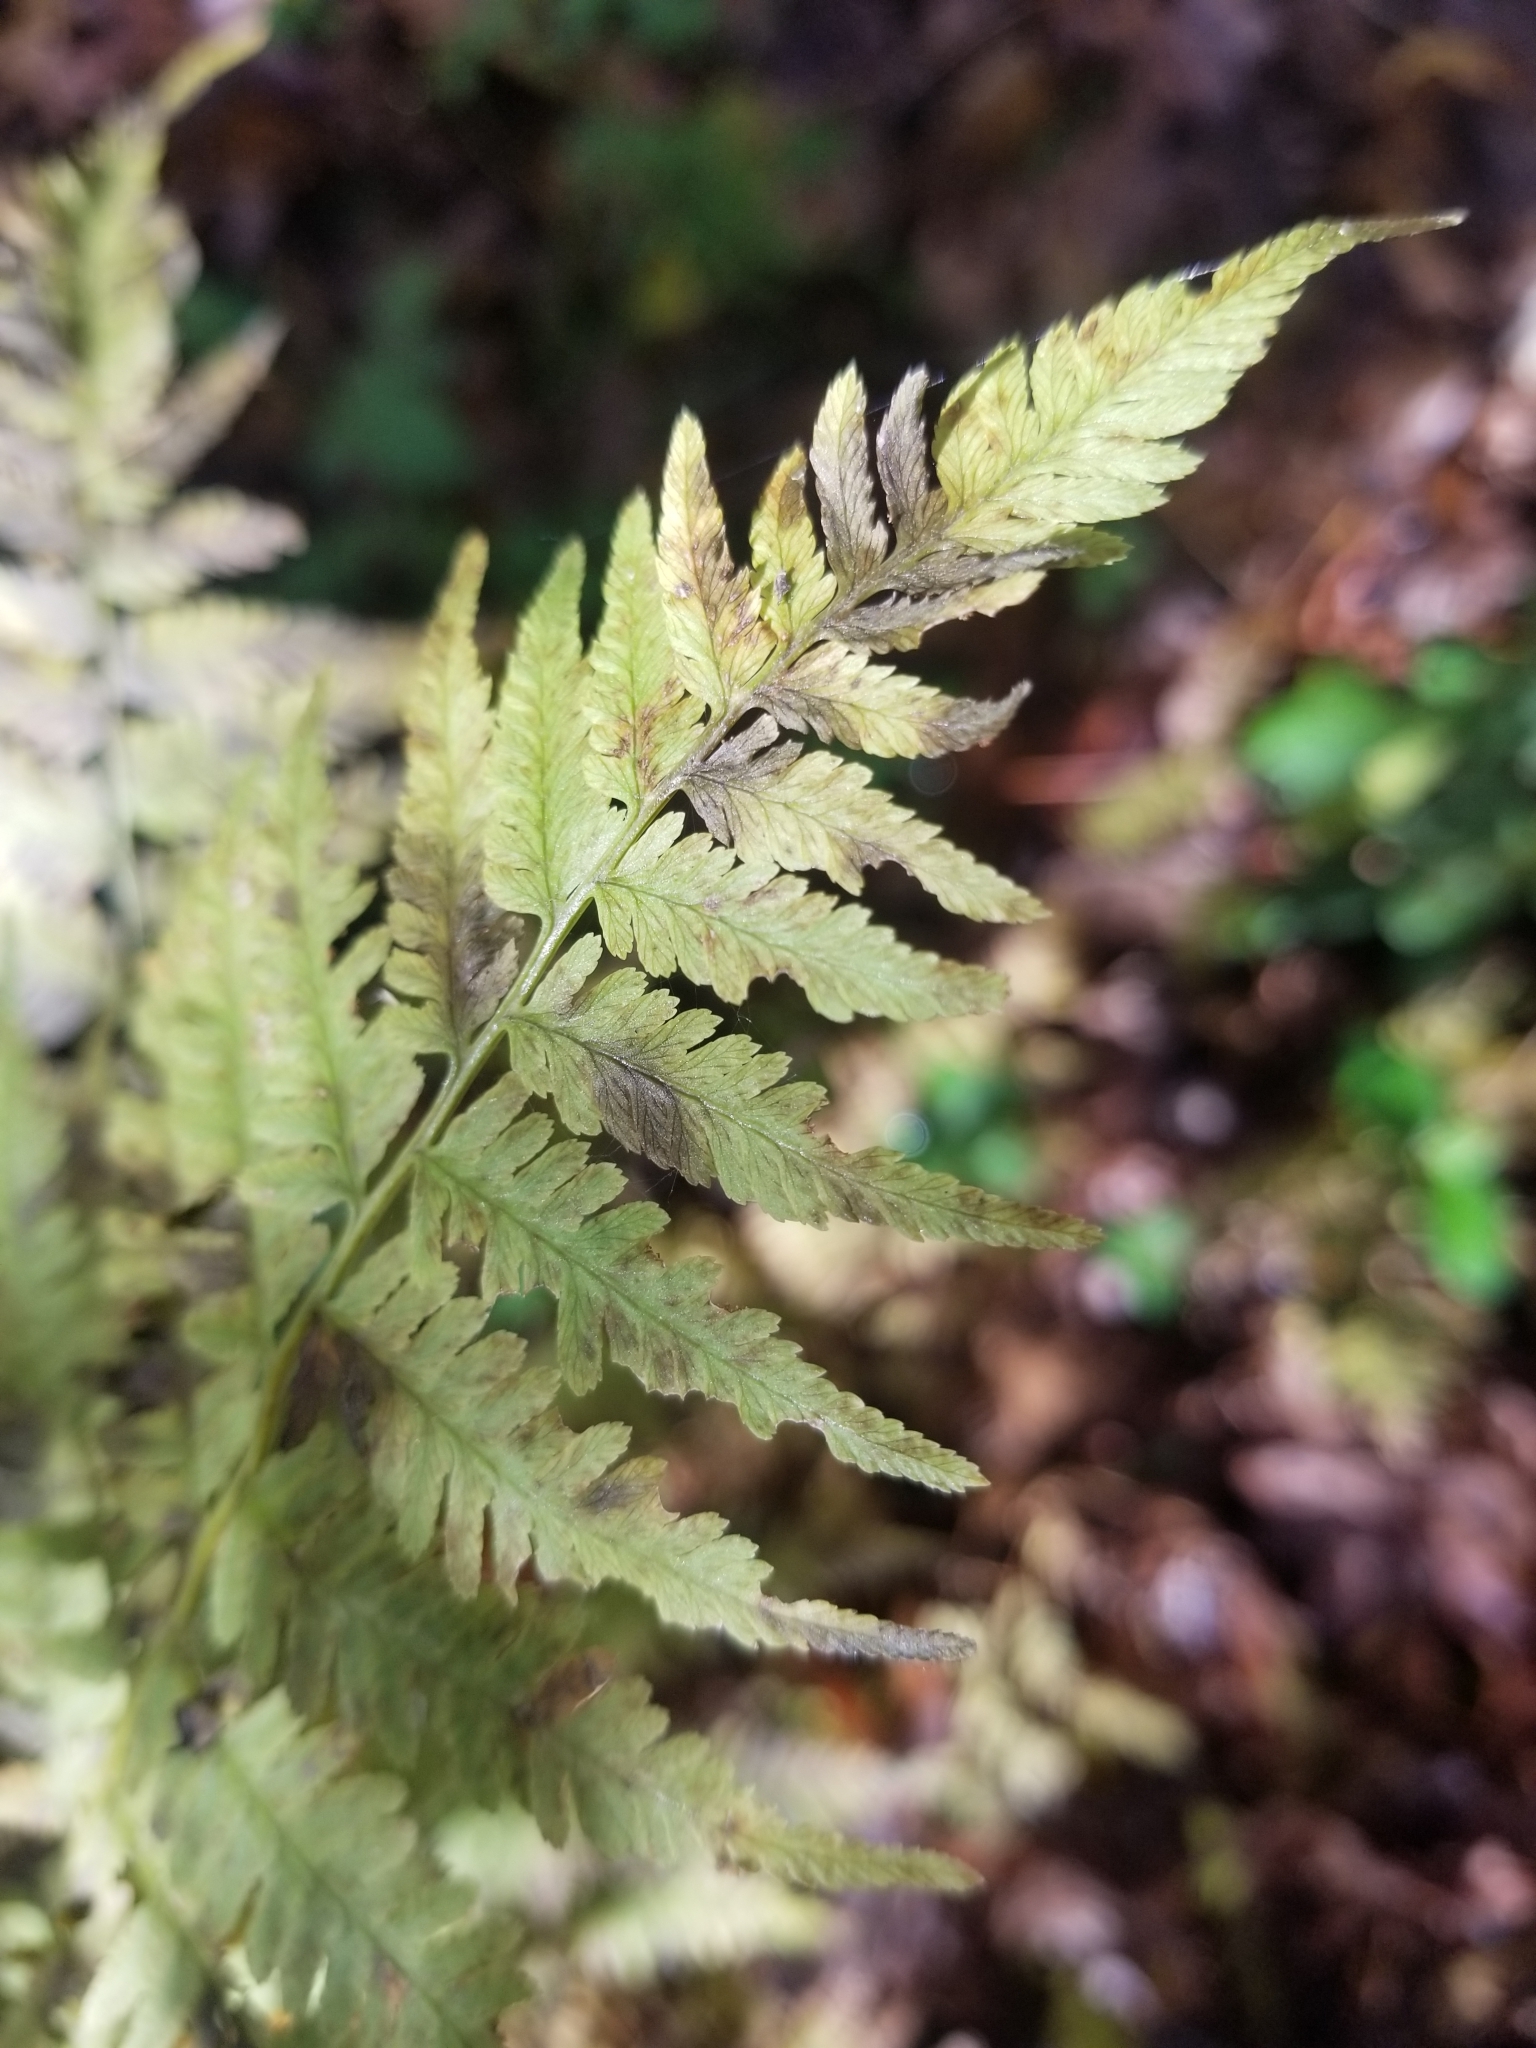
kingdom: Plantae
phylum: Tracheophyta
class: Polypodiopsida
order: Polypodiales
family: Athyriaceae
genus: Athyrium
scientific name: Athyrium asplenioides
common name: Southern lady fern
